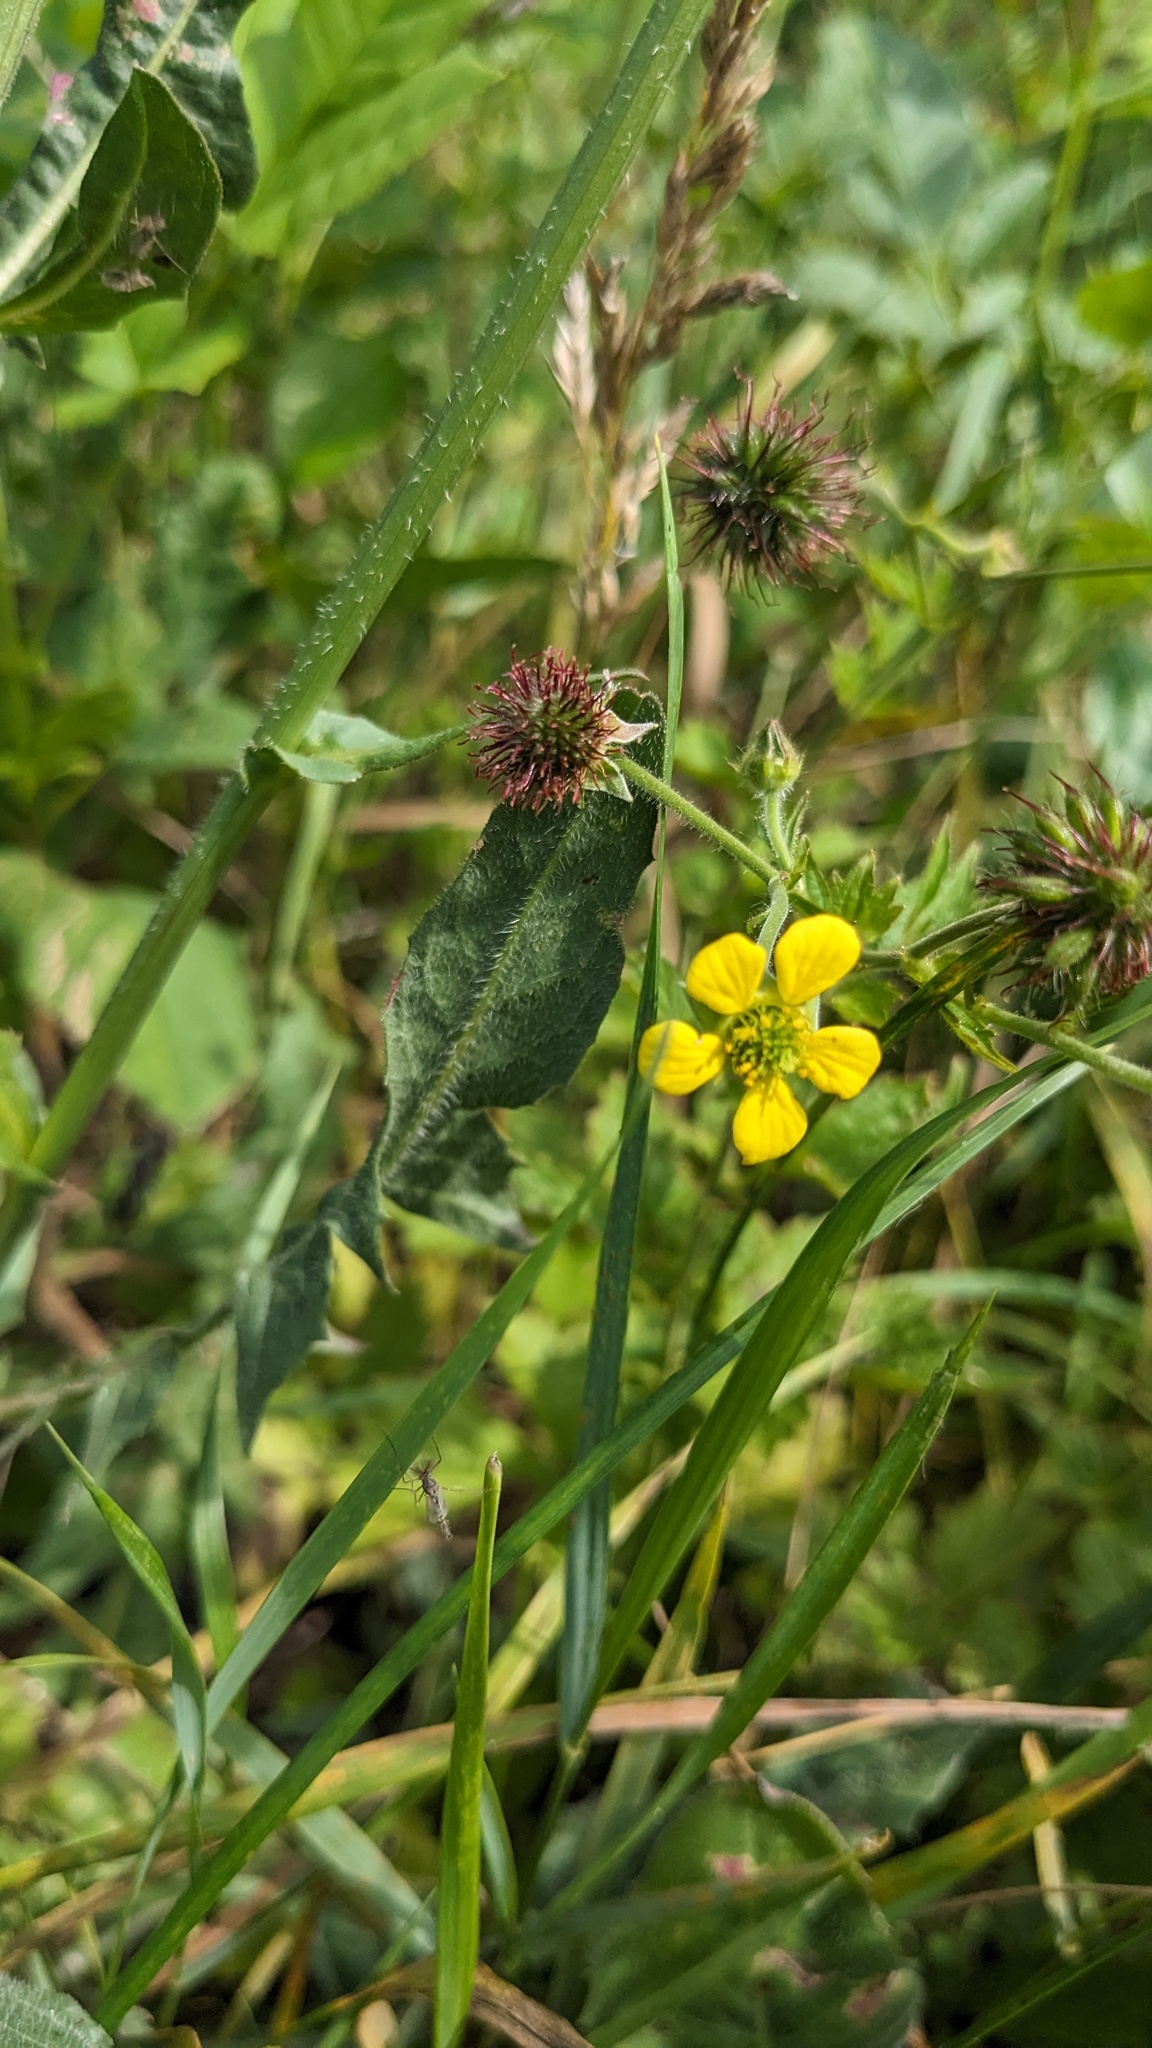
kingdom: Plantae
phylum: Tracheophyta
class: Magnoliopsida
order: Rosales
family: Rosaceae
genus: Geum
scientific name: Geum urbanum
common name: Wood avens
